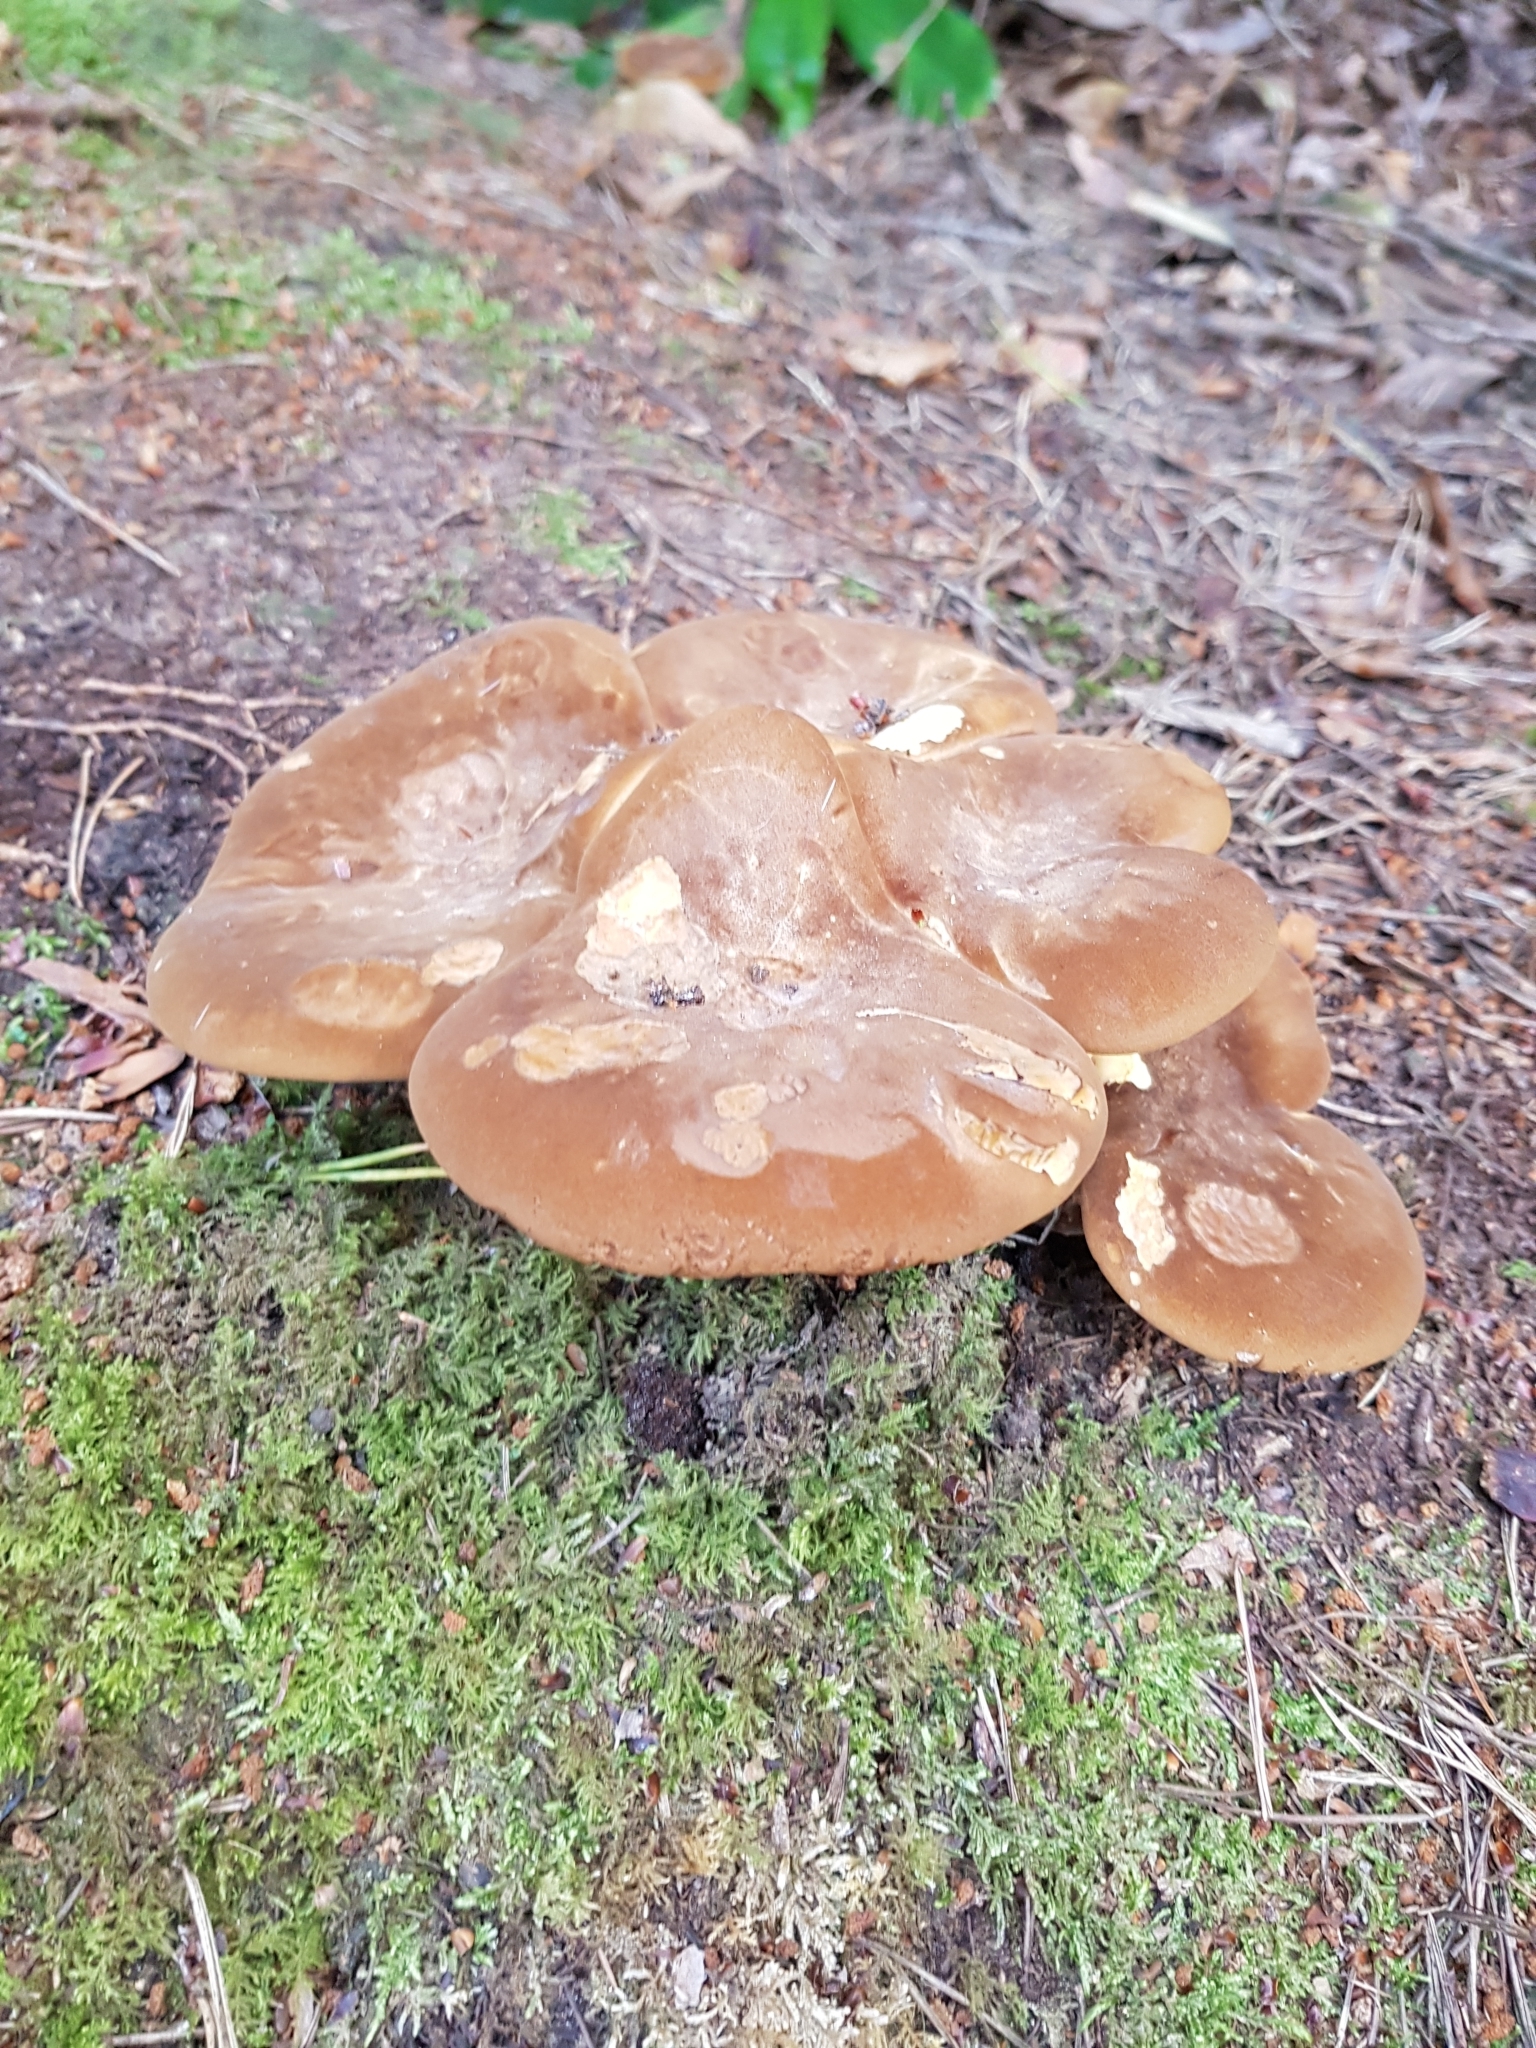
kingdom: Fungi
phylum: Basidiomycota
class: Agaricomycetes
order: Boletales
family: Tapinellaceae
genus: Tapinella
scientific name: Tapinella atrotomentosa
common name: Velvet rollrim
